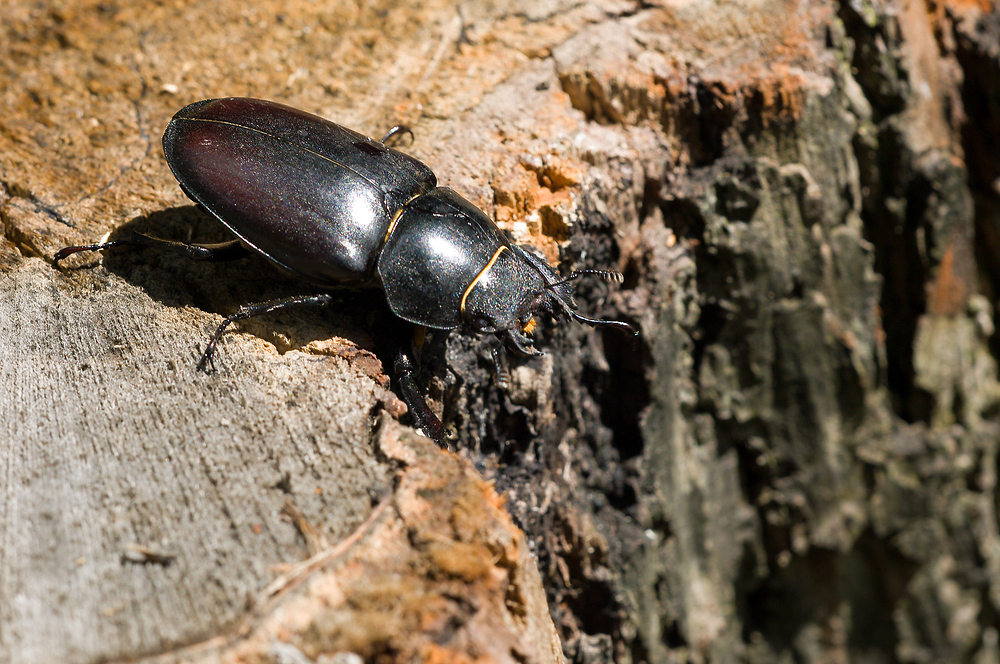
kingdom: Animalia
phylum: Arthropoda
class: Insecta
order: Coleoptera
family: Lucanidae
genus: Lucanus
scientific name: Lucanus cervus
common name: Stag beetle
